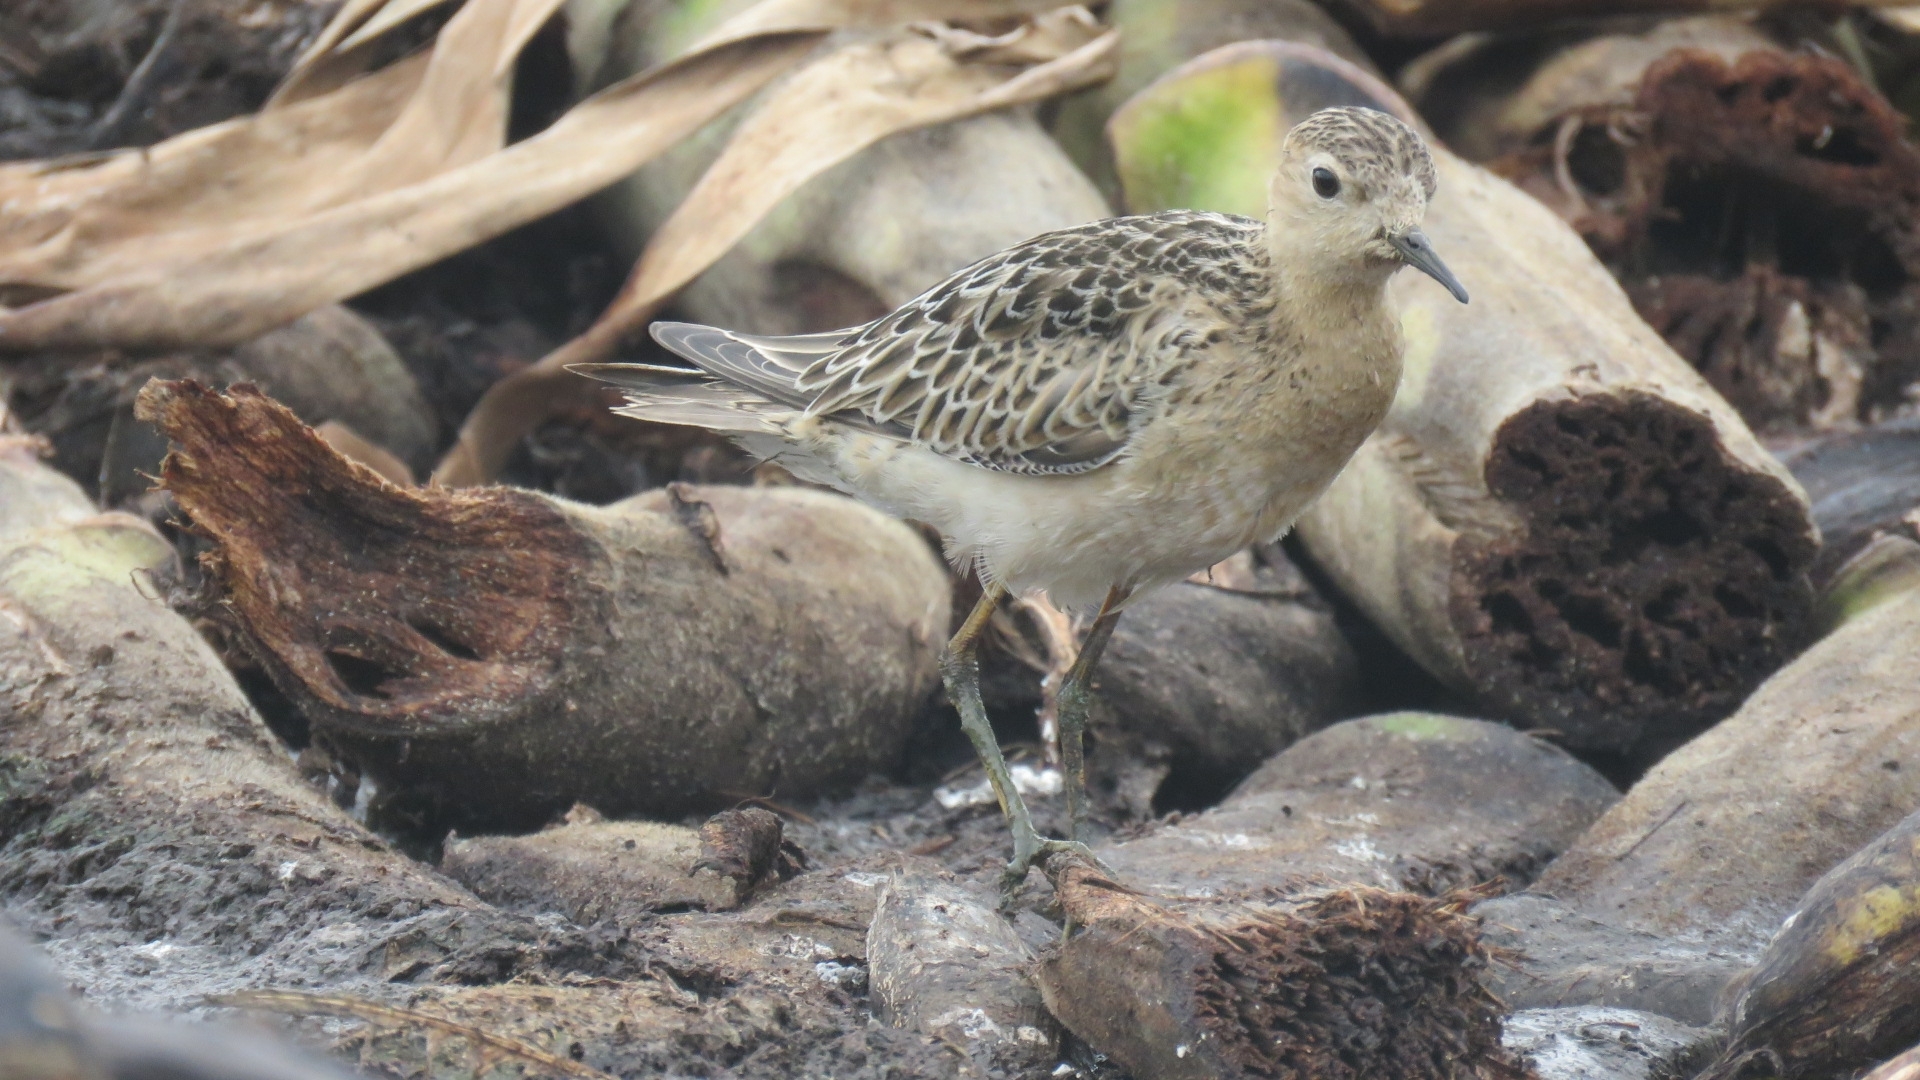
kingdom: Animalia
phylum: Chordata
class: Aves
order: Charadriiformes
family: Scolopacidae
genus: Calidris
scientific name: Calidris subruficollis
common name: Buff-breasted sandpiper
